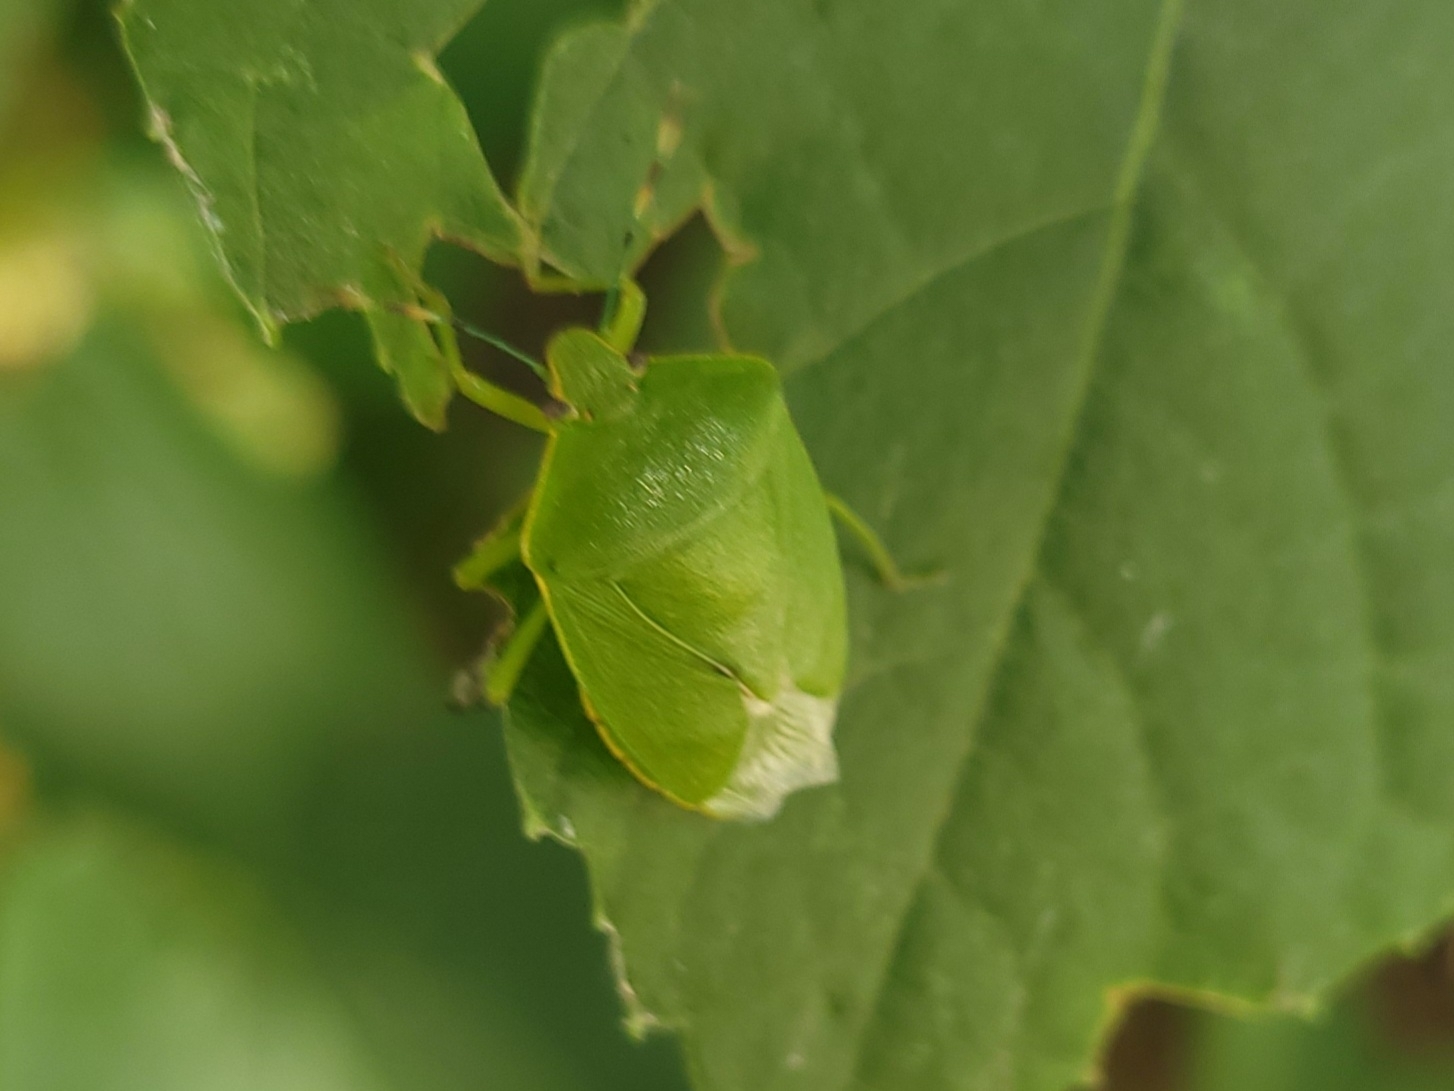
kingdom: Animalia
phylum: Arthropoda
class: Insecta
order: Hemiptera
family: Pentatomidae
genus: Chinavia
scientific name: Chinavia hilaris
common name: Green stink bug
